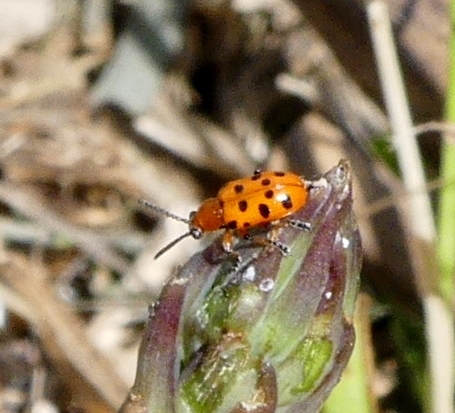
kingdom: Animalia
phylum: Arthropoda
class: Insecta
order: Coleoptera
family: Chrysomelidae
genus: Crioceris
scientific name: Crioceris duodecimpunctata
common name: Twelve-spotted asparagus beetle
